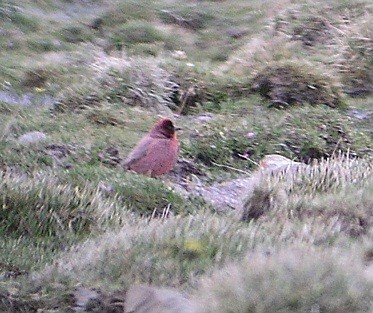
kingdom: Animalia
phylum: Chordata
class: Aves
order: Passeriformes
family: Fringillidae
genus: Carpodacus
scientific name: Carpodacus roborowskii
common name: Tibetan rosefinch
